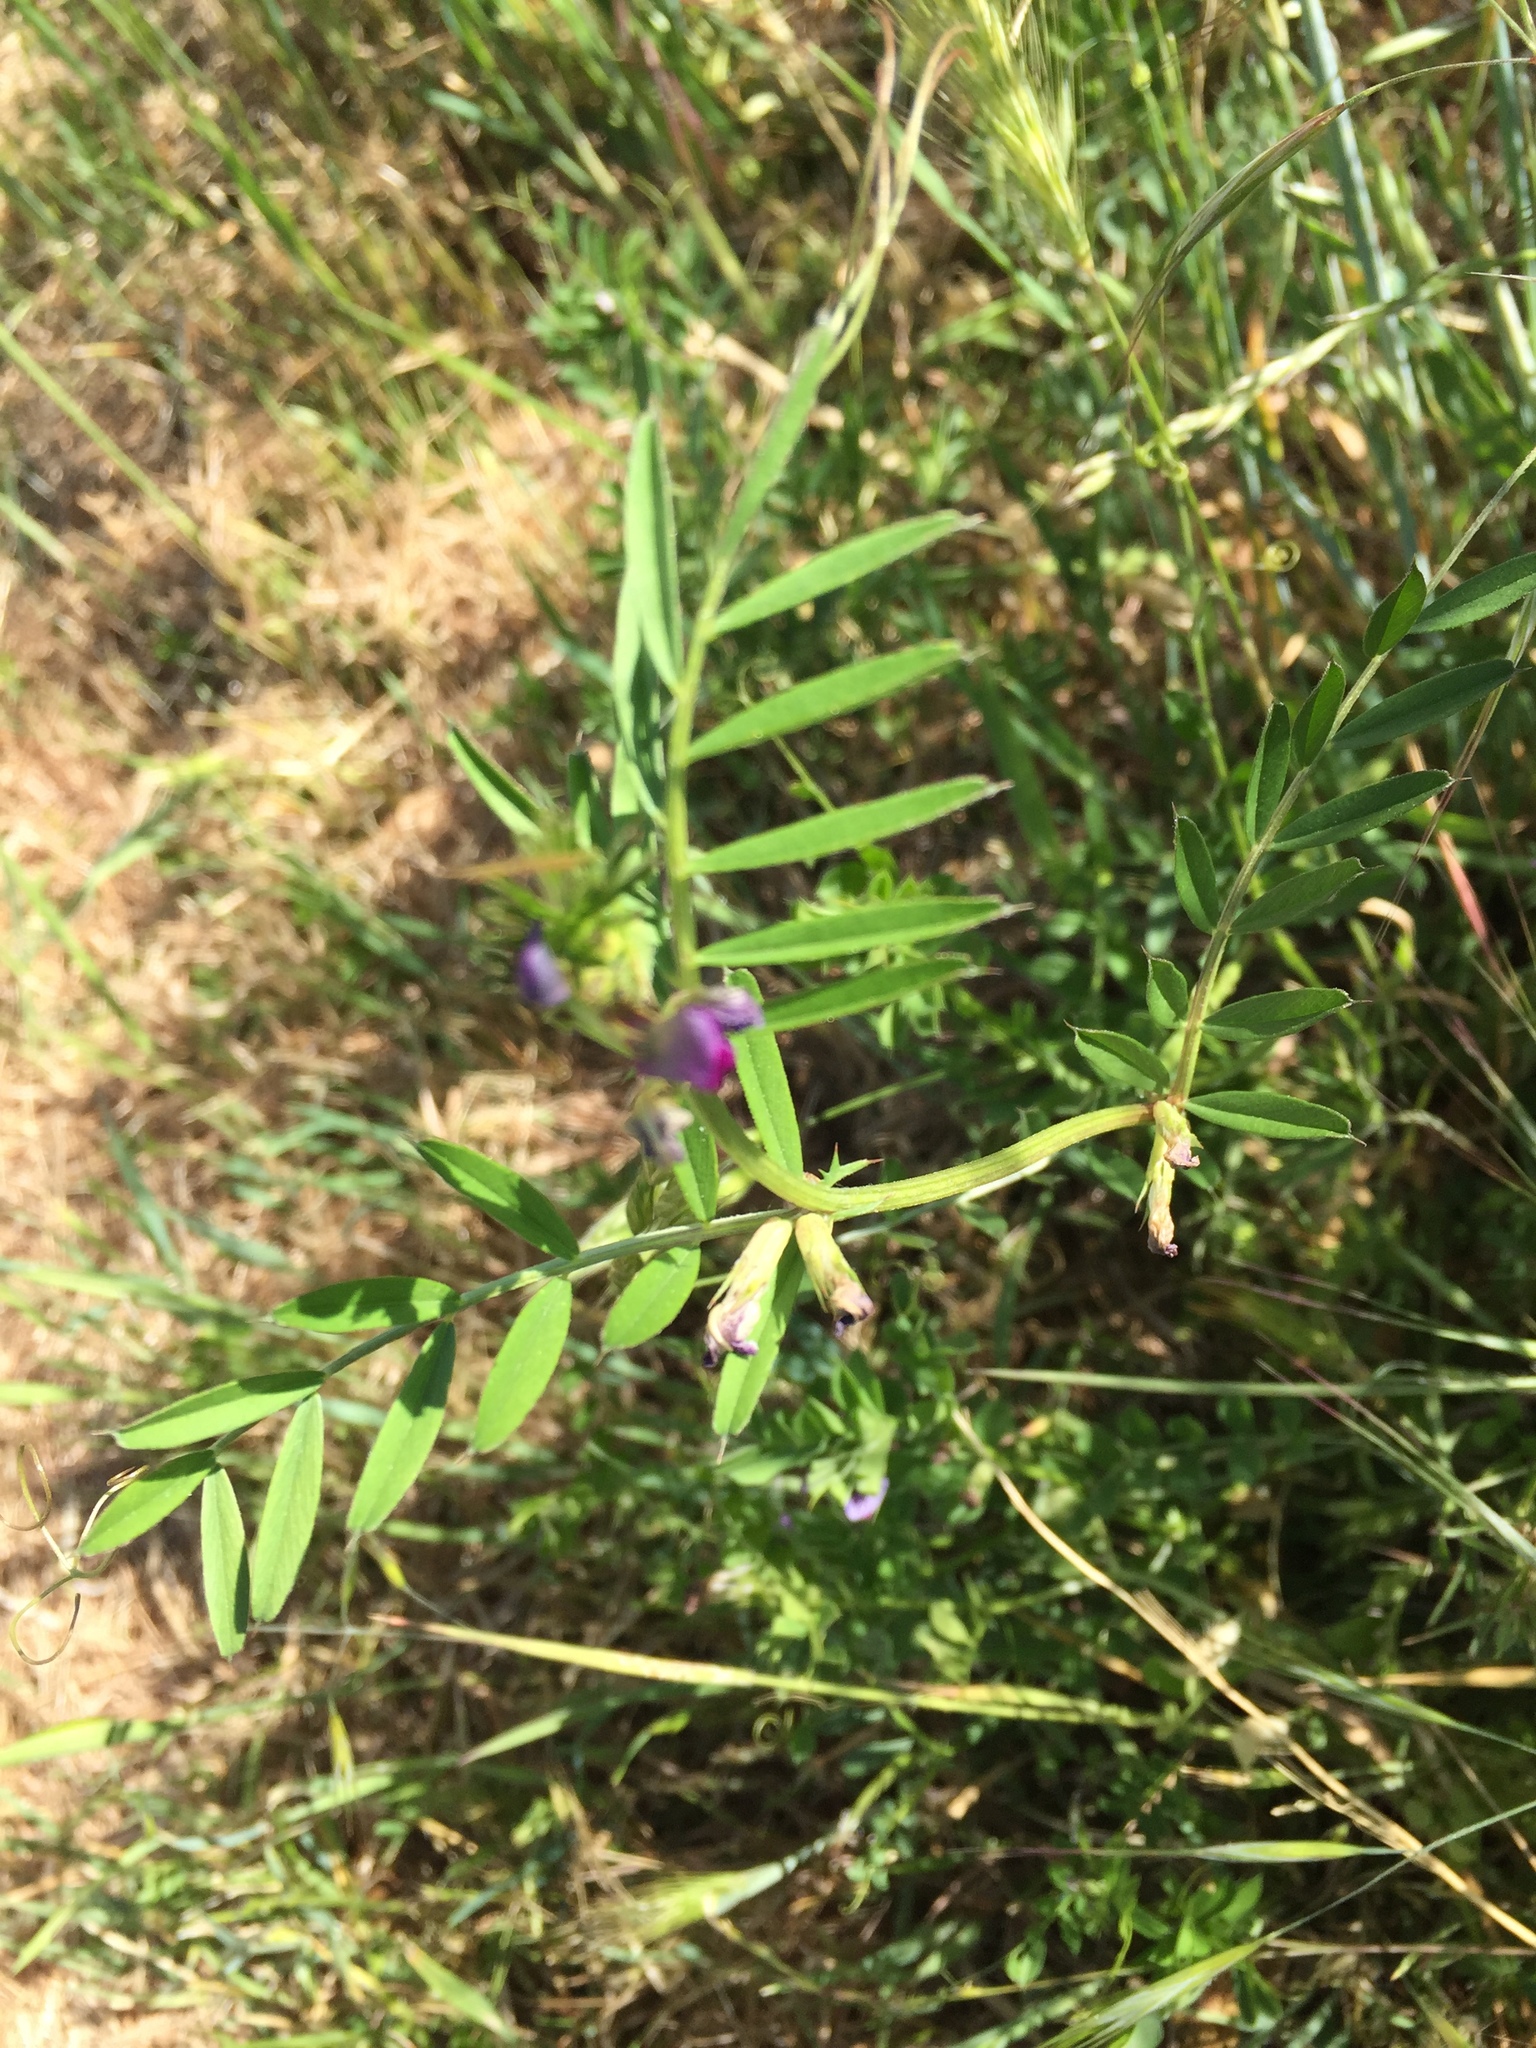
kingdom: Plantae
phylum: Tracheophyta
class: Magnoliopsida
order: Fabales
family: Fabaceae
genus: Vicia
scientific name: Vicia sativa
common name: Garden vetch
